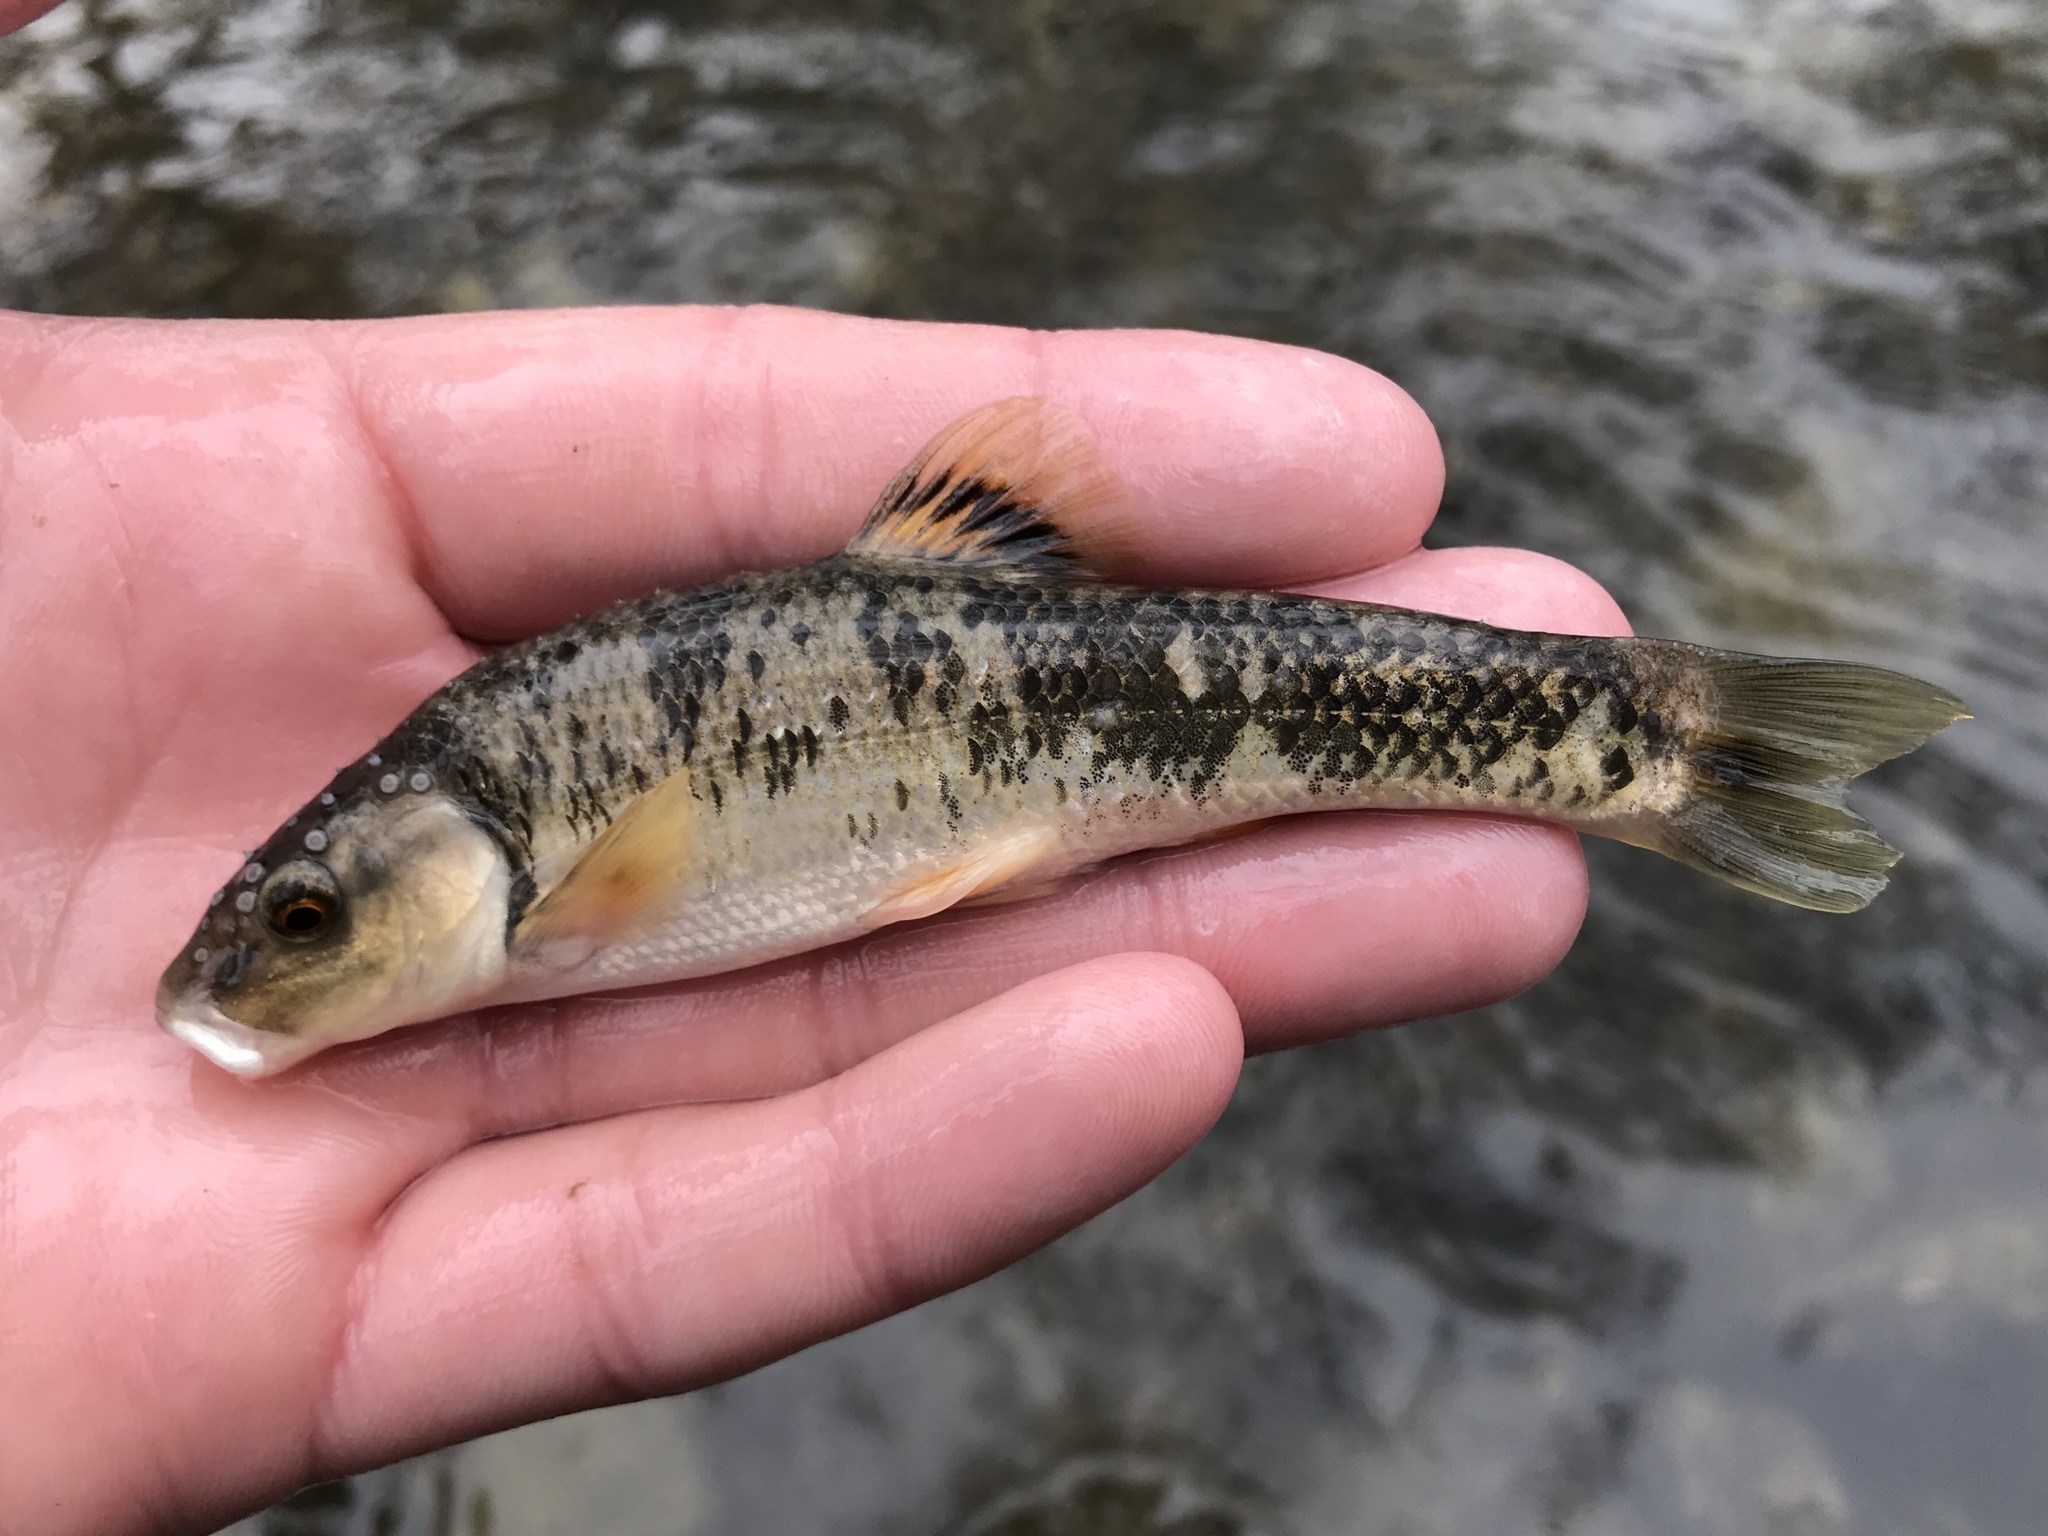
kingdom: Animalia
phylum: Chordata
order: Cypriniformes
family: Cyprinidae
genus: Campostoma
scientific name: Campostoma anomalum
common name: Central stoneroller
